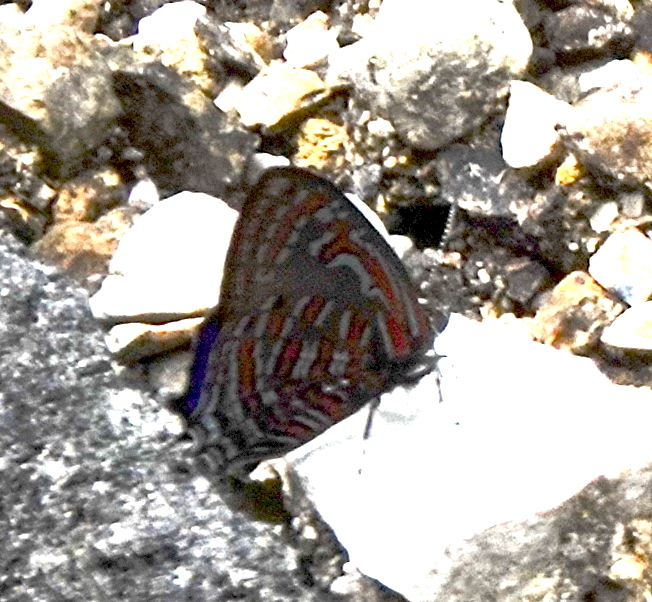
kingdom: Animalia
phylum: Arthropoda
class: Insecta
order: Lepidoptera
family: Lycaenidae
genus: Hypochrysops
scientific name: Hypochrysops polycletus
